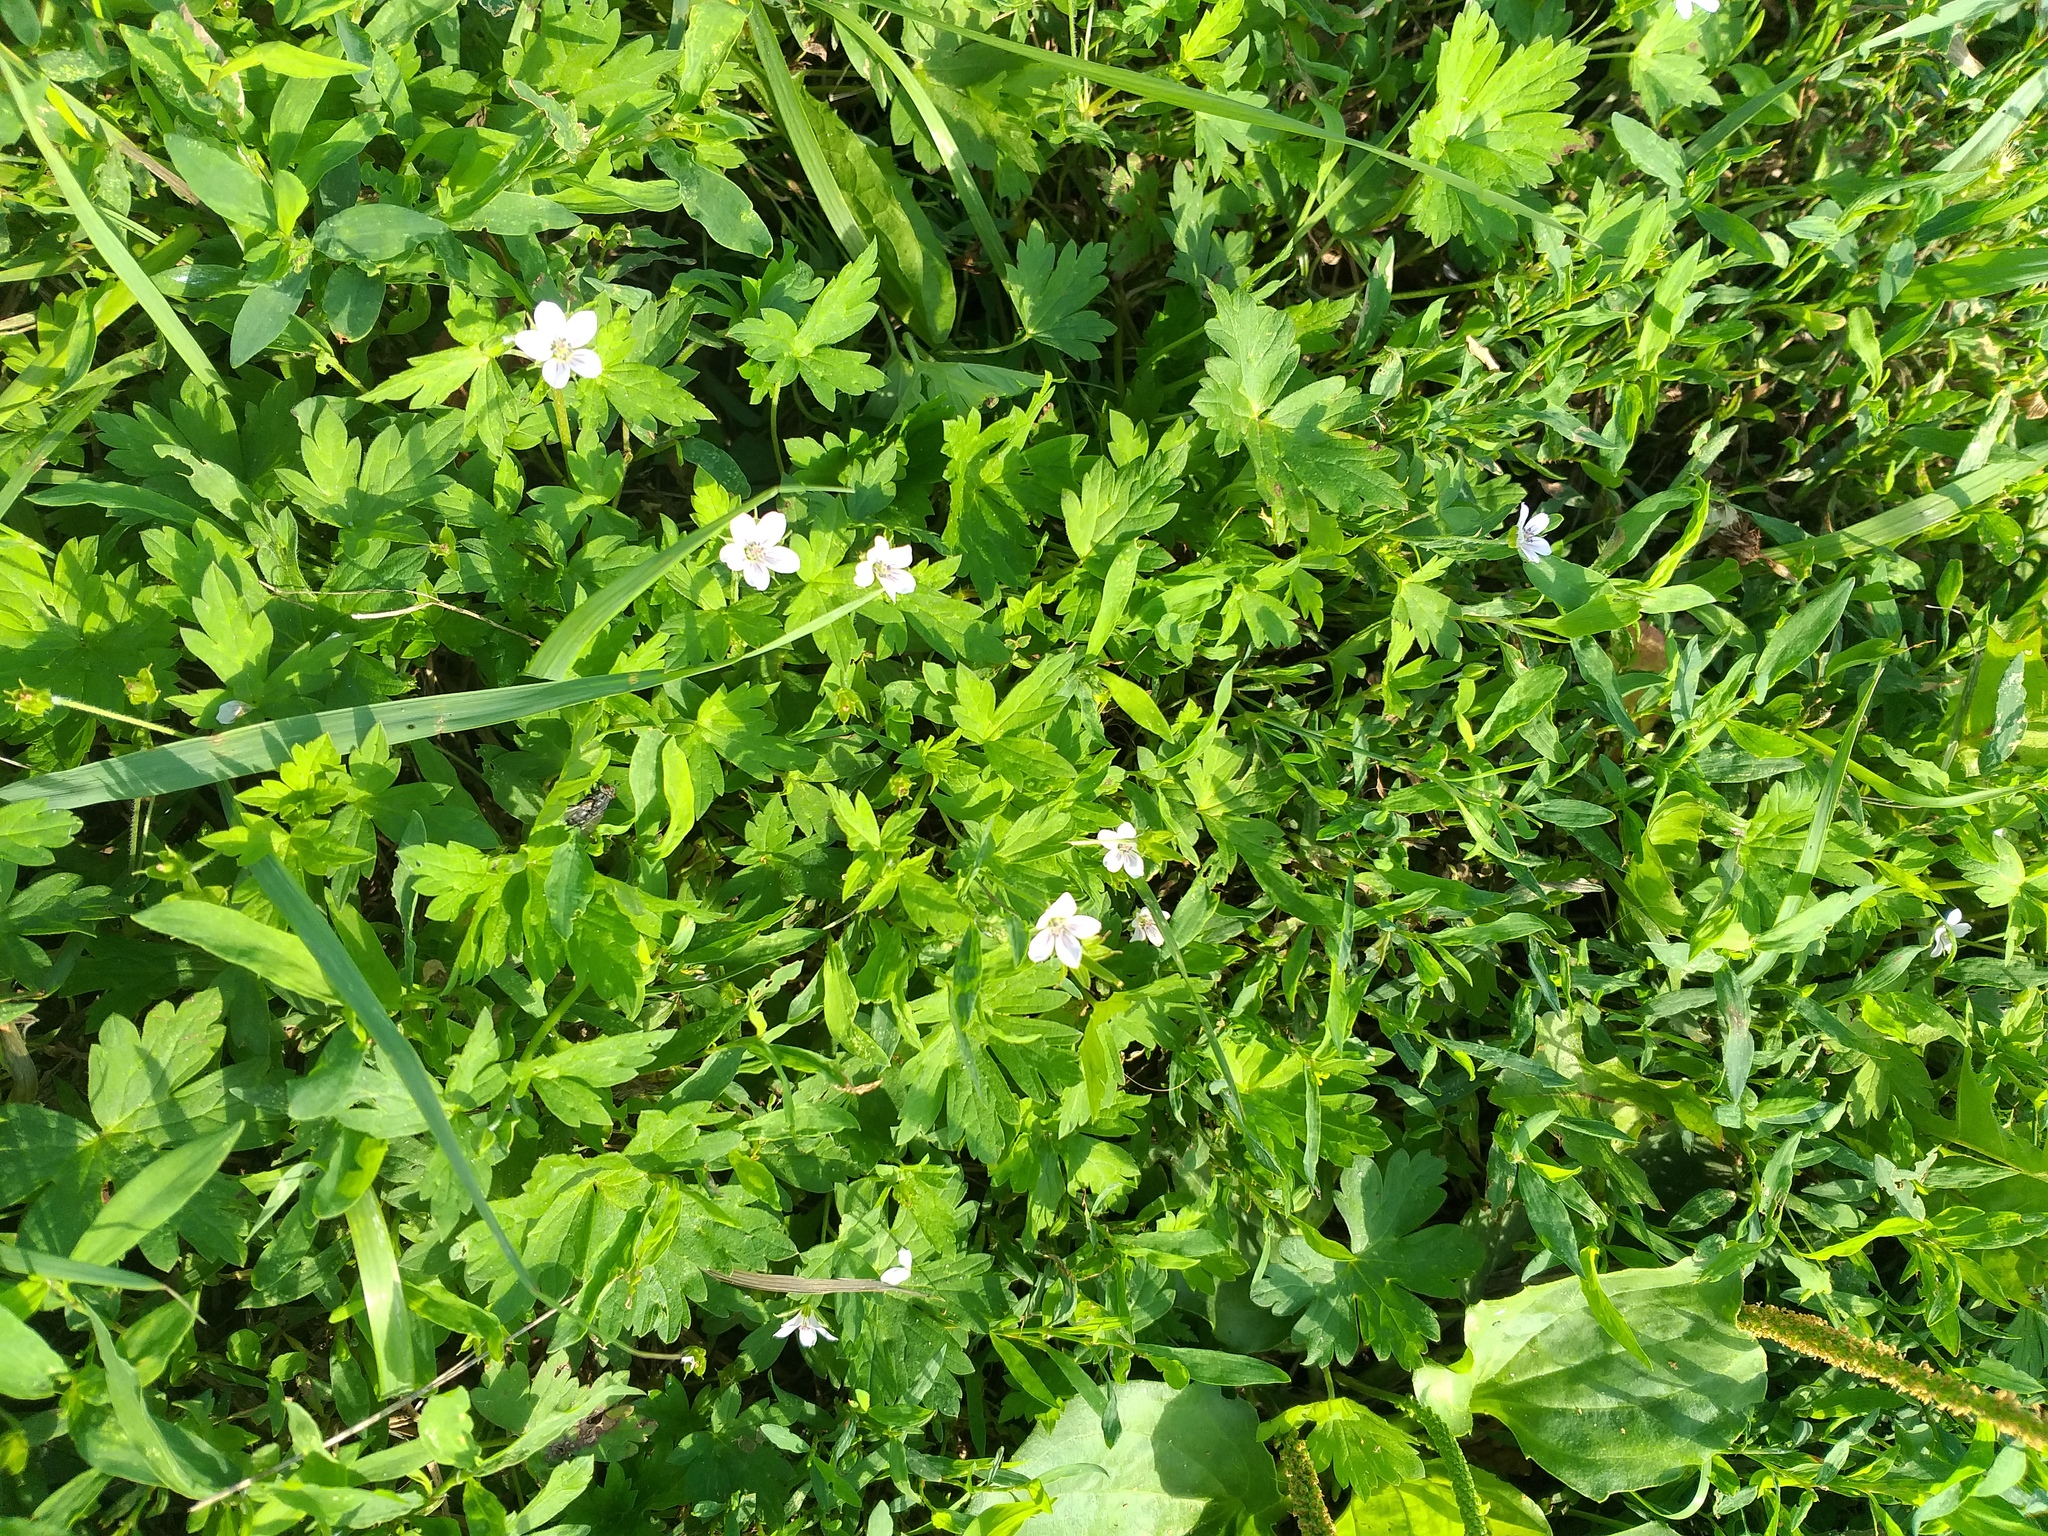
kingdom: Plantae
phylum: Tracheophyta
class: Magnoliopsida
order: Geraniales
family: Geraniaceae
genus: Geranium
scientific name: Geranium sibiricum
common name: Siberian crane's-bill
